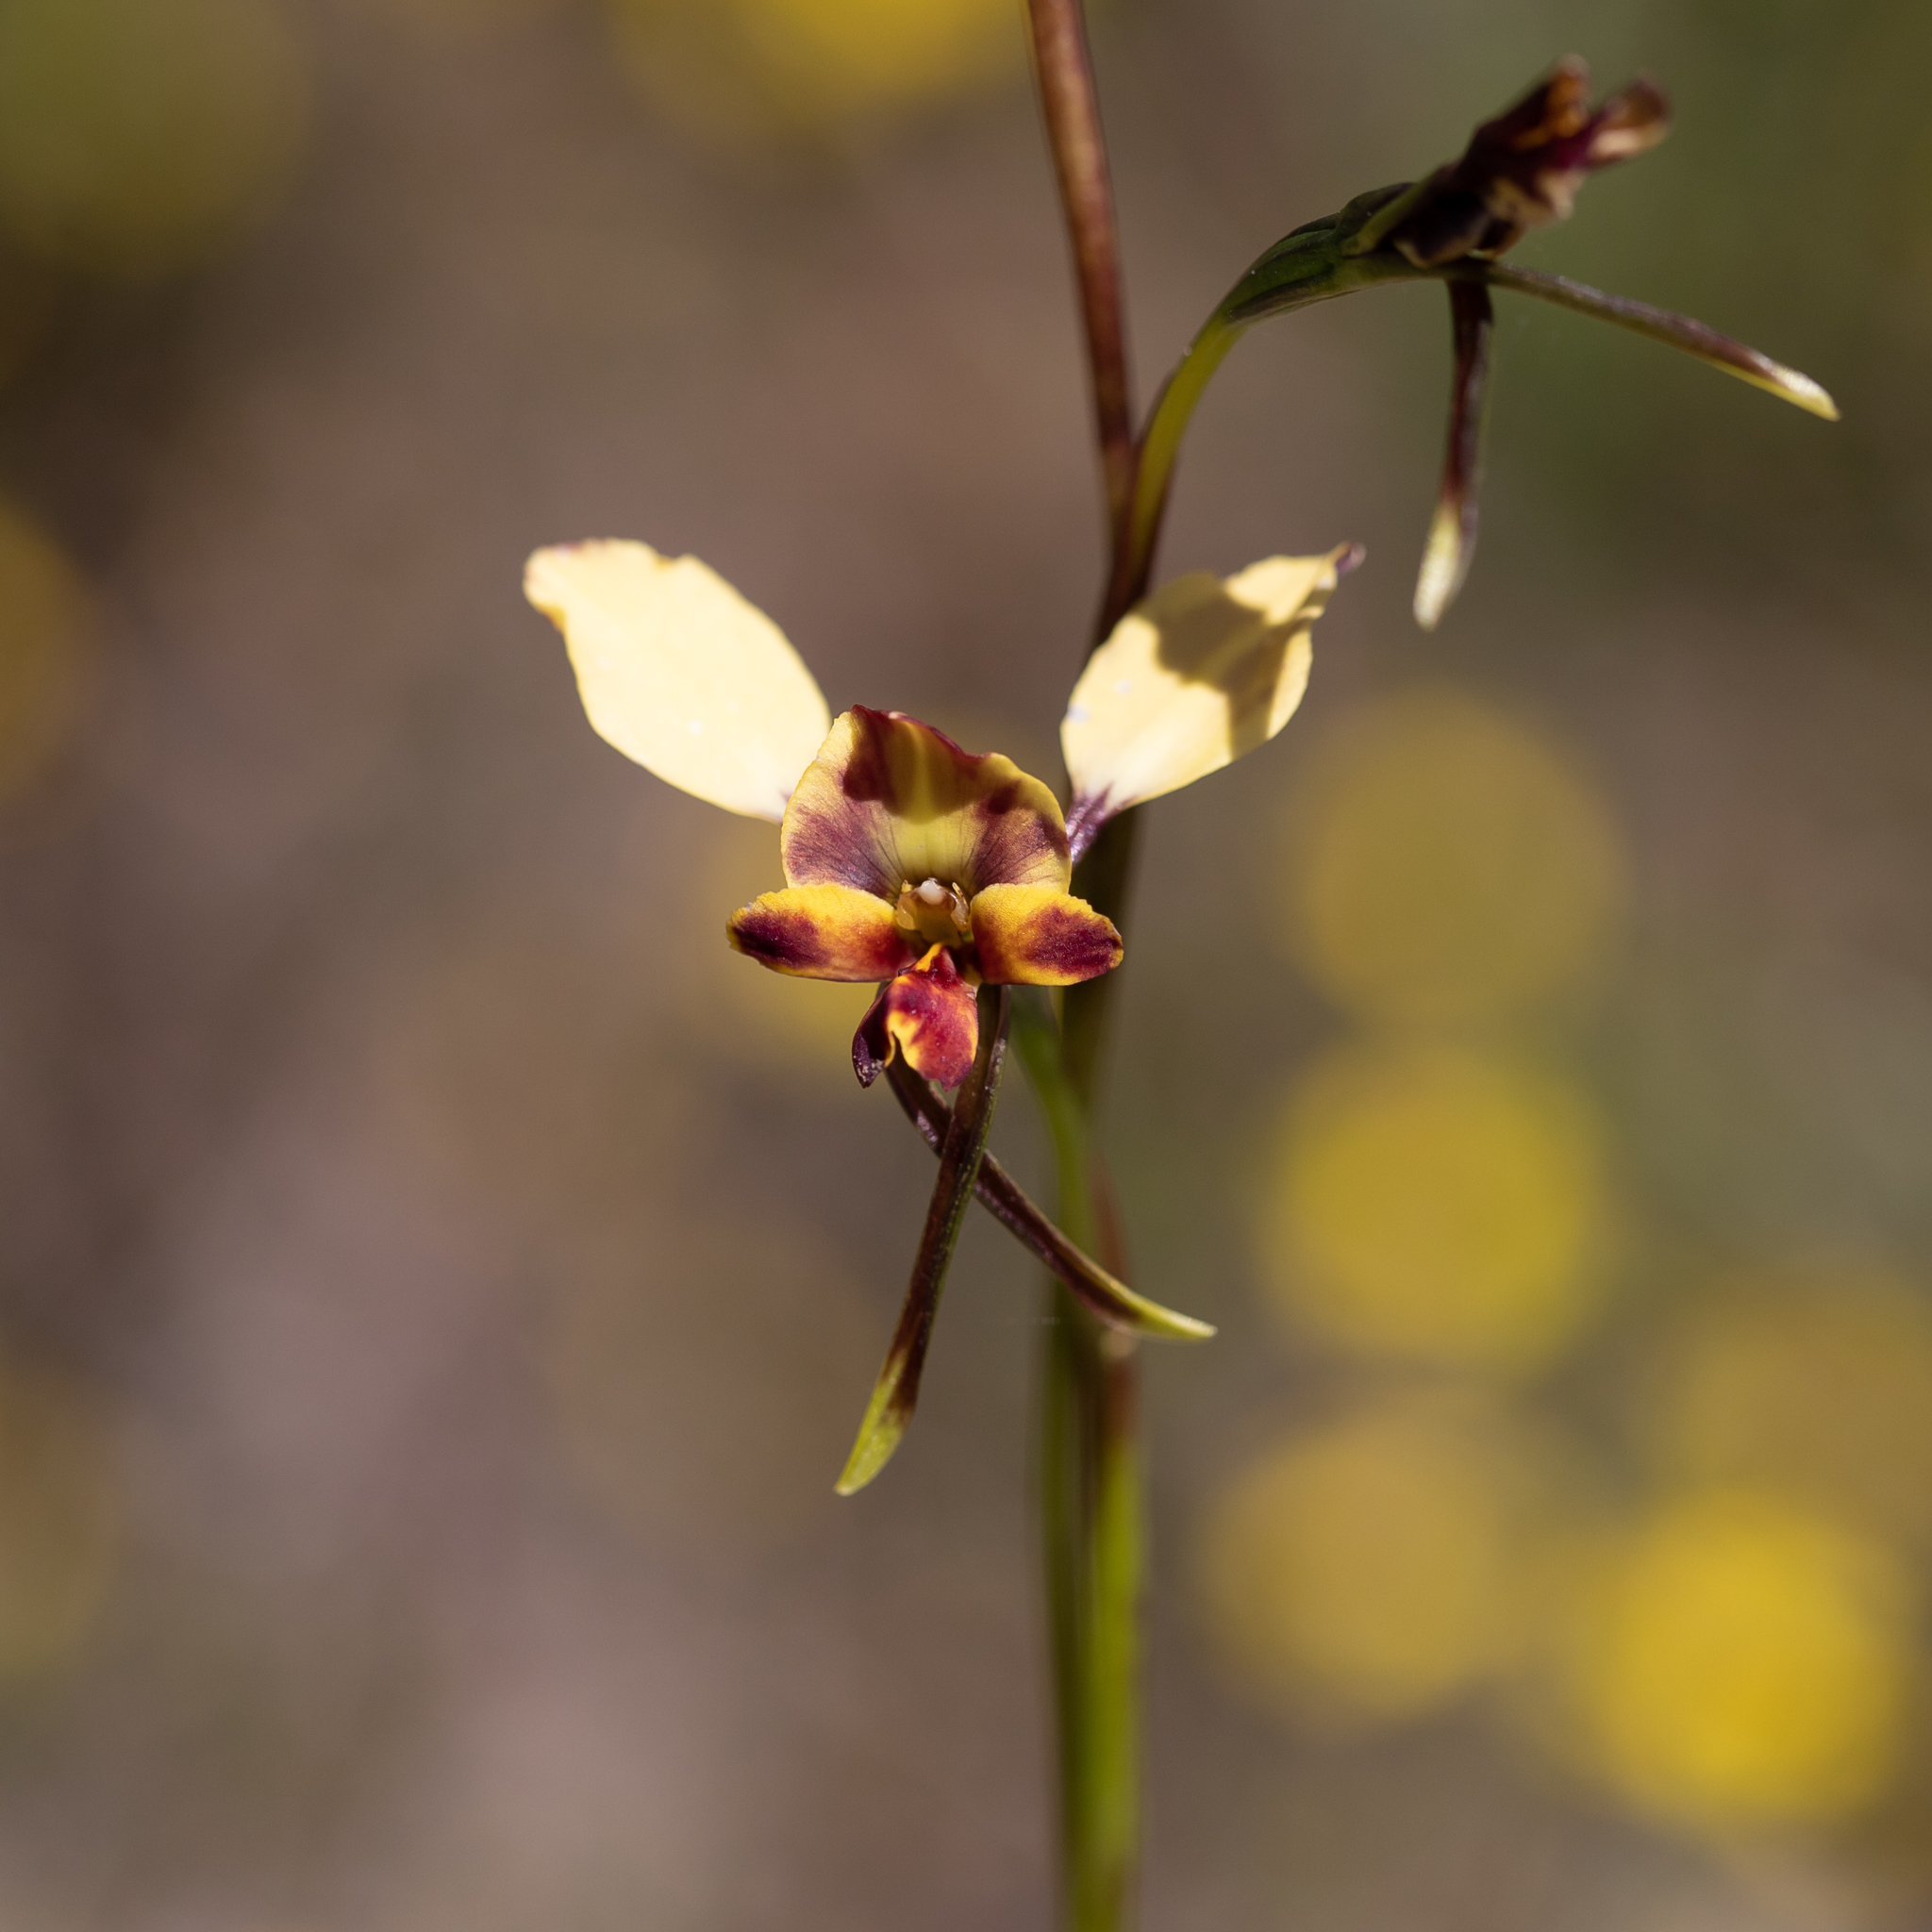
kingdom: Plantae
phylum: Tracheophyta
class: Liliopsida
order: Asparagales
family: Orchidaceae
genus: Diuris
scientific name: Diuris pardina
